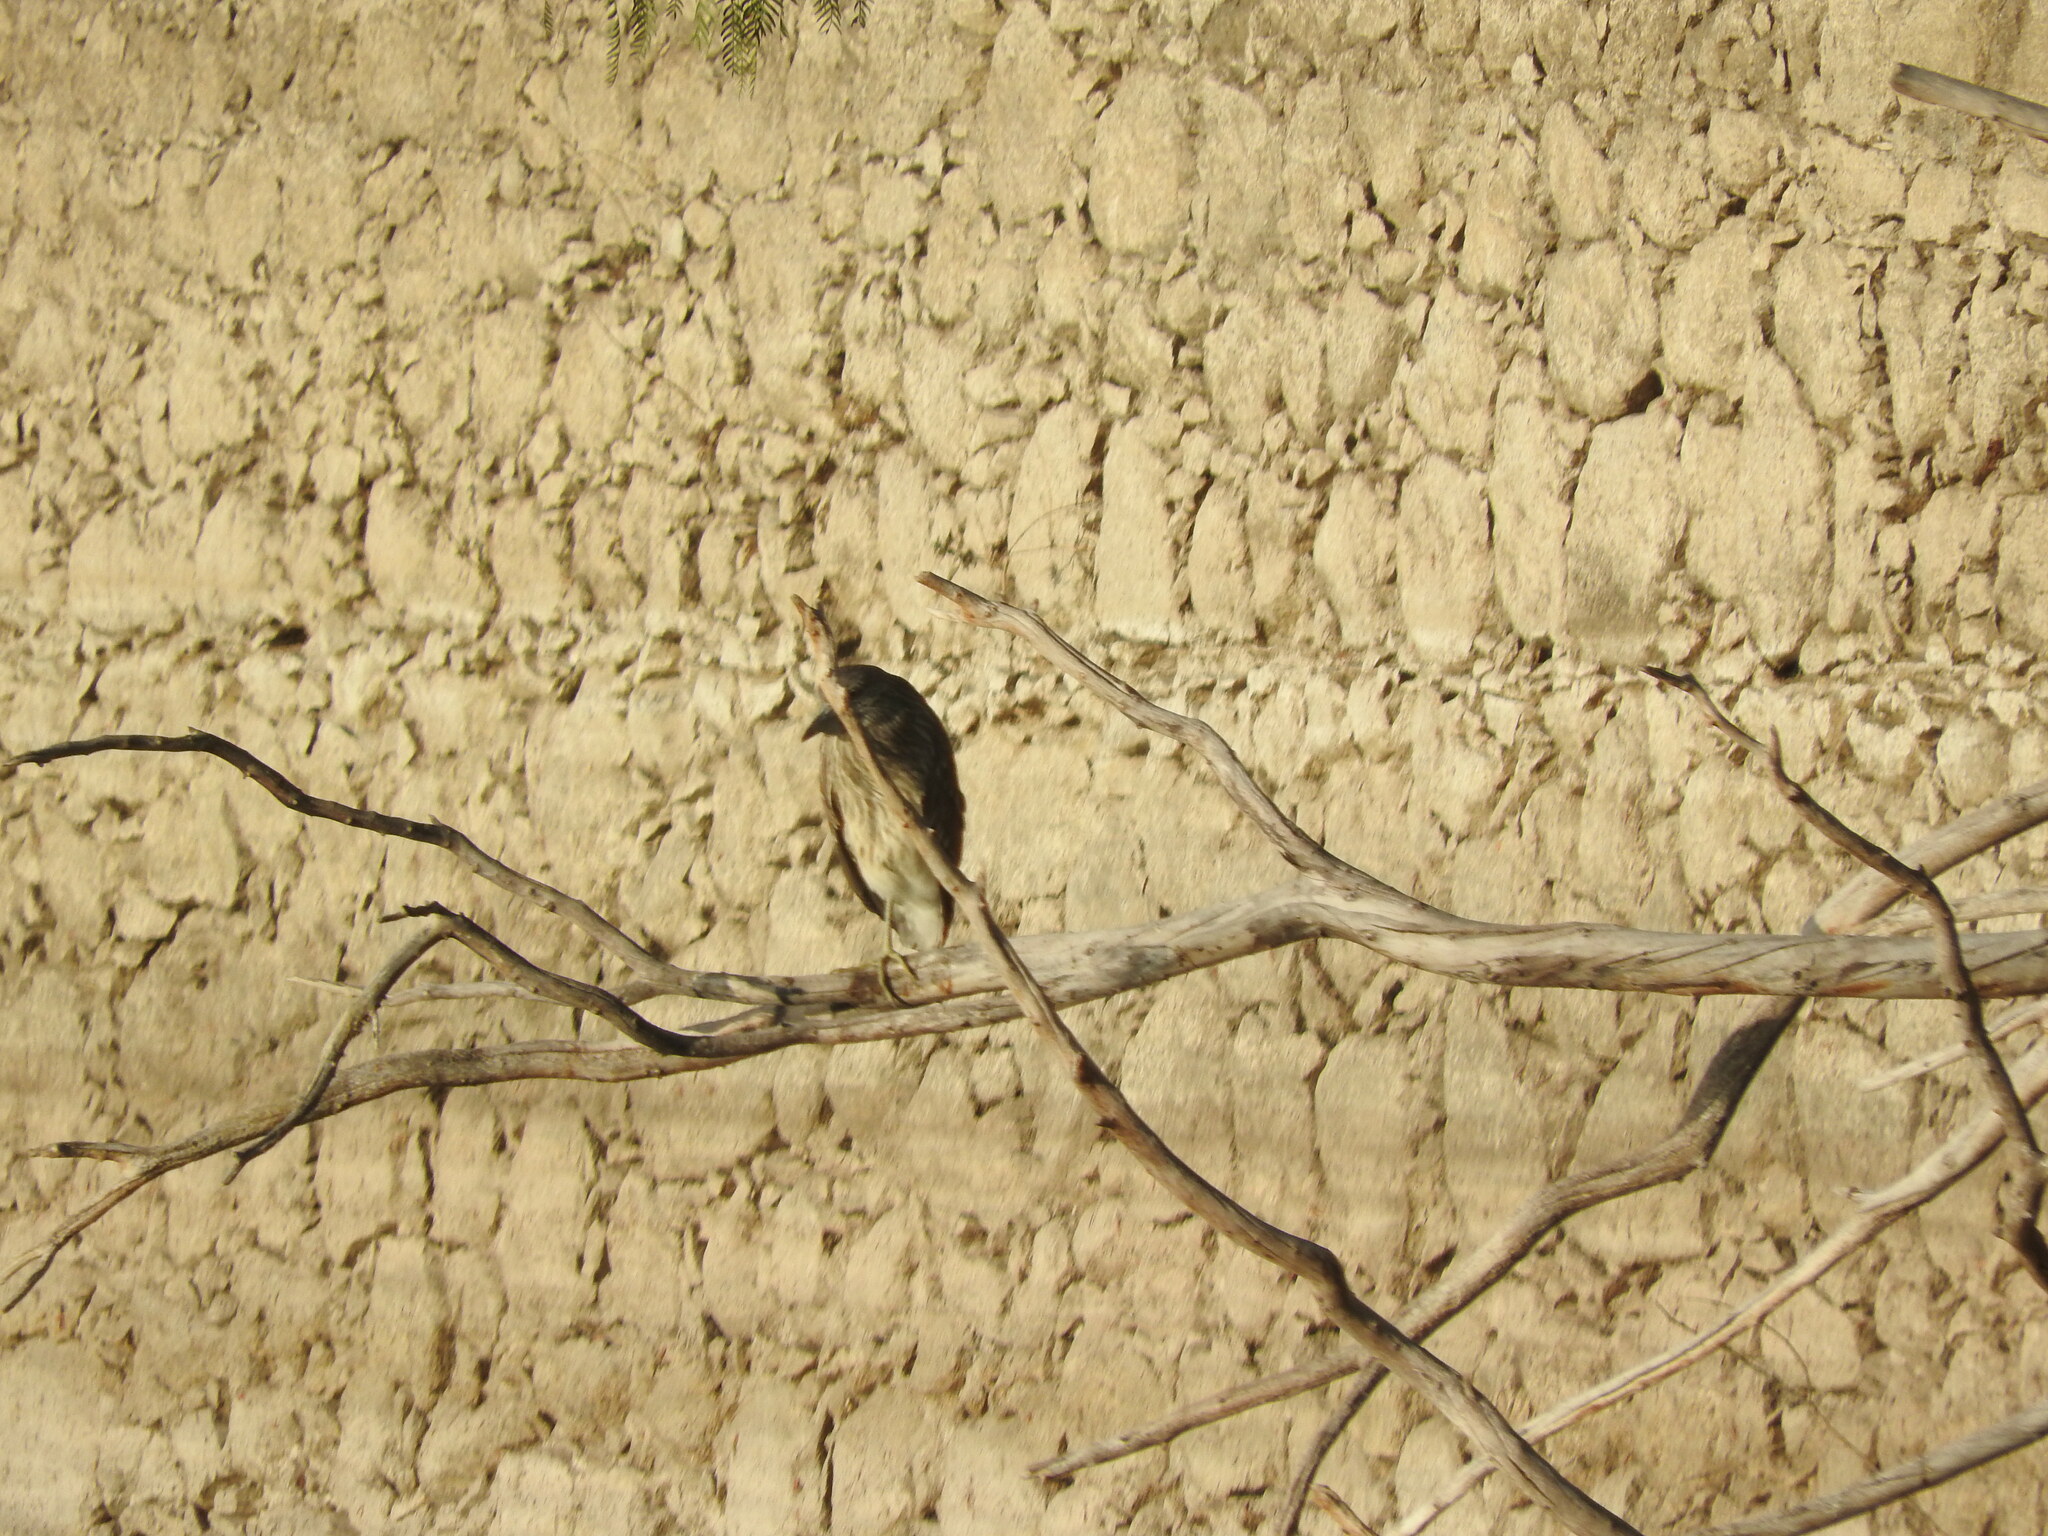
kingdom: Animalia
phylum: Chordata
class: Aves
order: Pelecaniformes
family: Ardeidae
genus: Nycticorax
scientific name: Nycticorax nycticorax
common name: Black-crowned night heron
